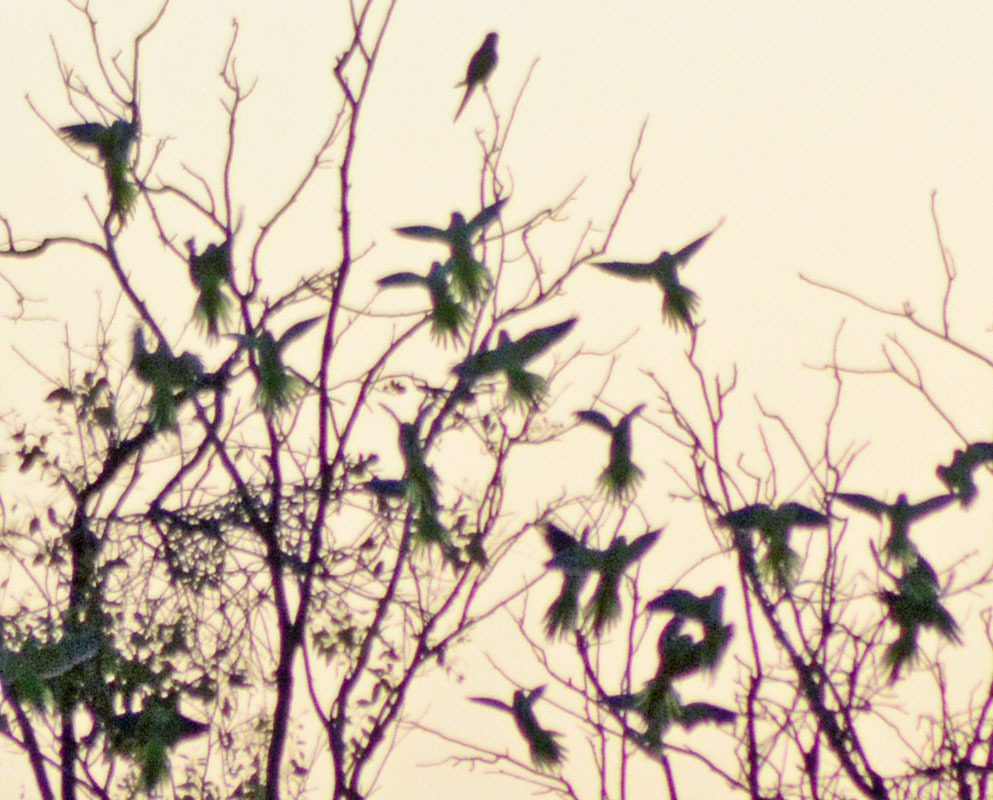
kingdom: Animalia
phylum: Chordata
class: Aves
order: Psittaciformes
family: Psittacidae
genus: Myiopsitta
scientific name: Myiopsitta monachus
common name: Monk parakeet
